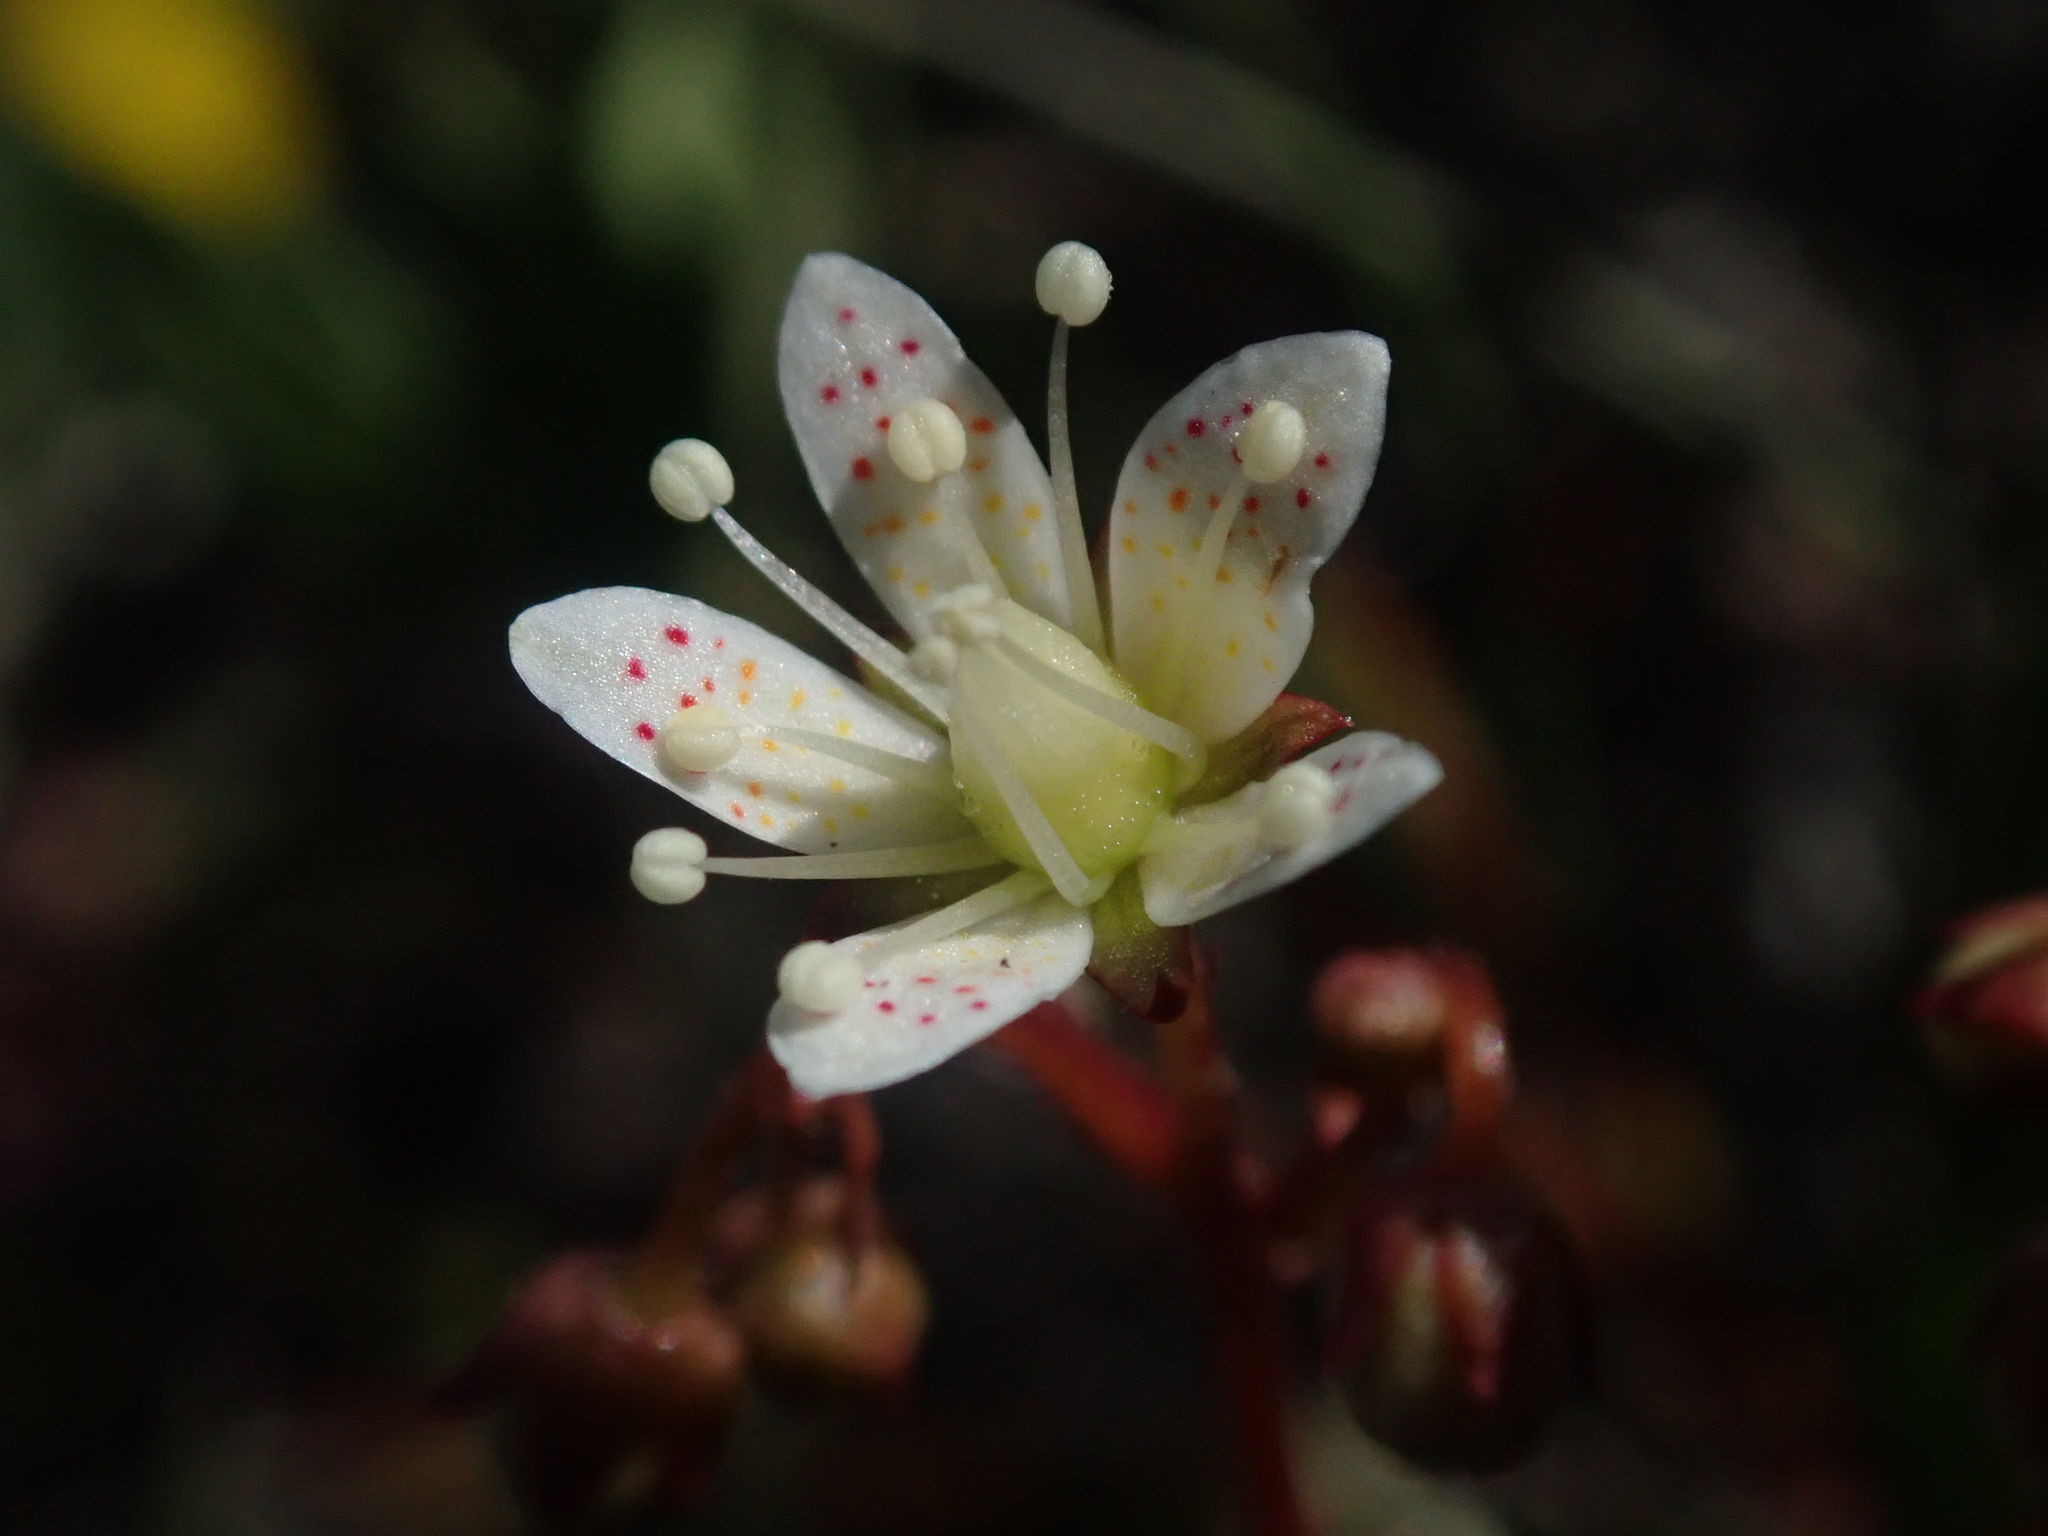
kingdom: Plantae
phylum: Tracheophyta
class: Magnoliopsida
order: Saxifragales
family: Saxifragaceae
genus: Saxifraga
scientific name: Saxifraga bronchialis
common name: Matted saxifrage
